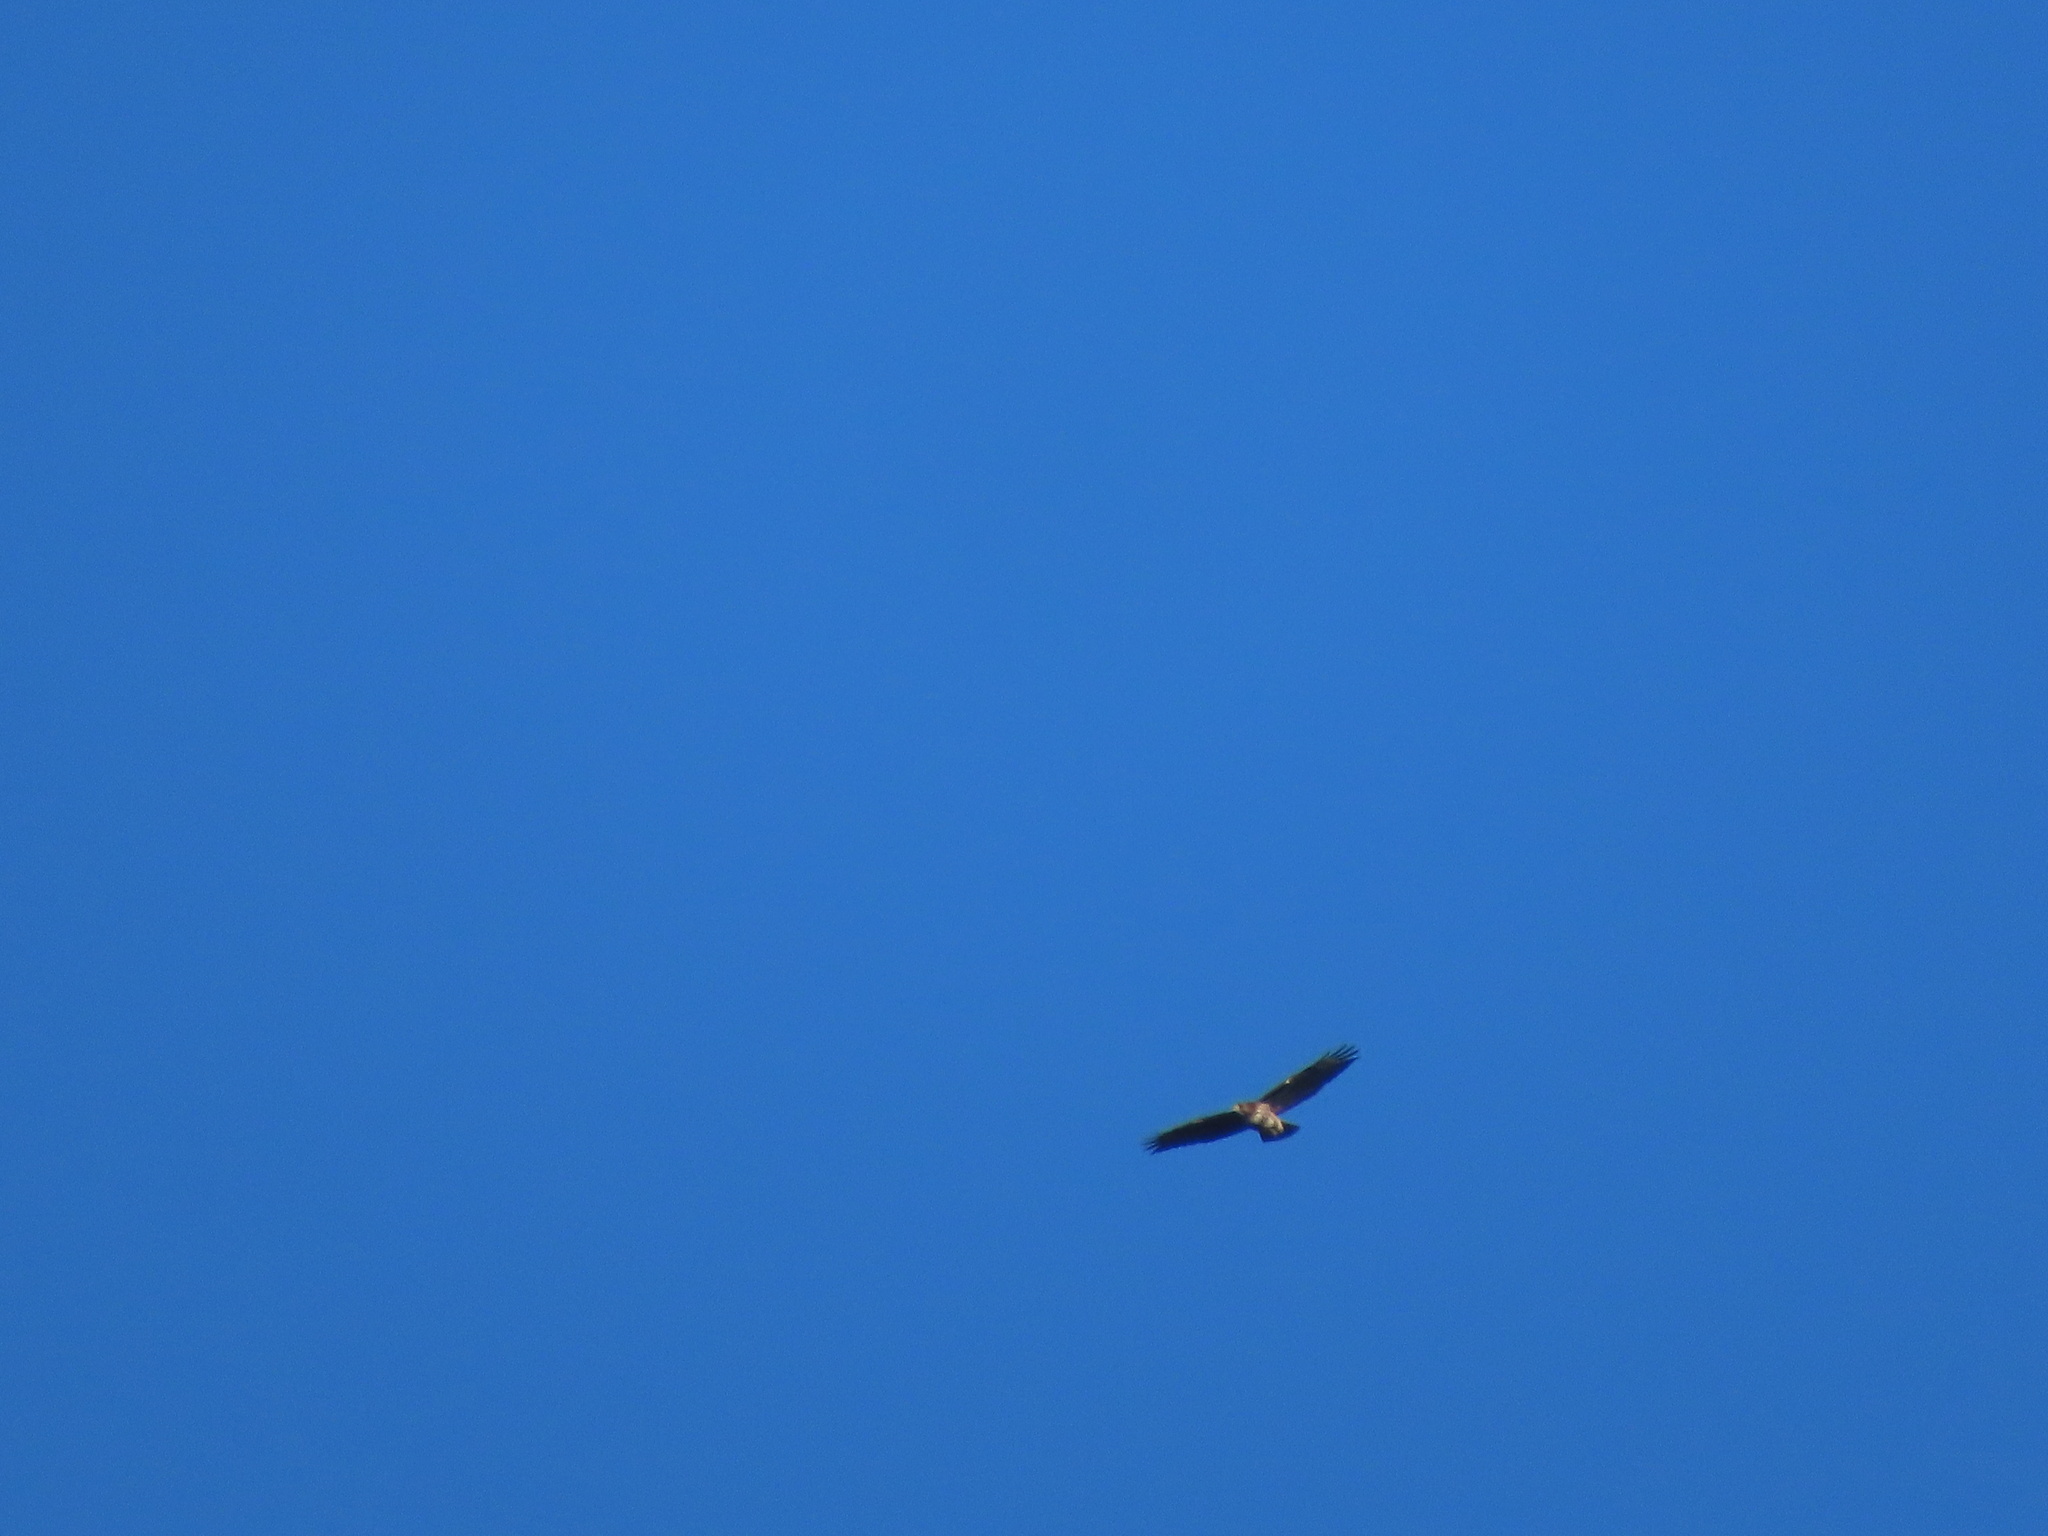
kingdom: Animalia
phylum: Chordata
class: Aves
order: Accipitriformes
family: Accipitridae
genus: Buteo
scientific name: Buteo jamaicensis
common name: Red-tailed hawk
